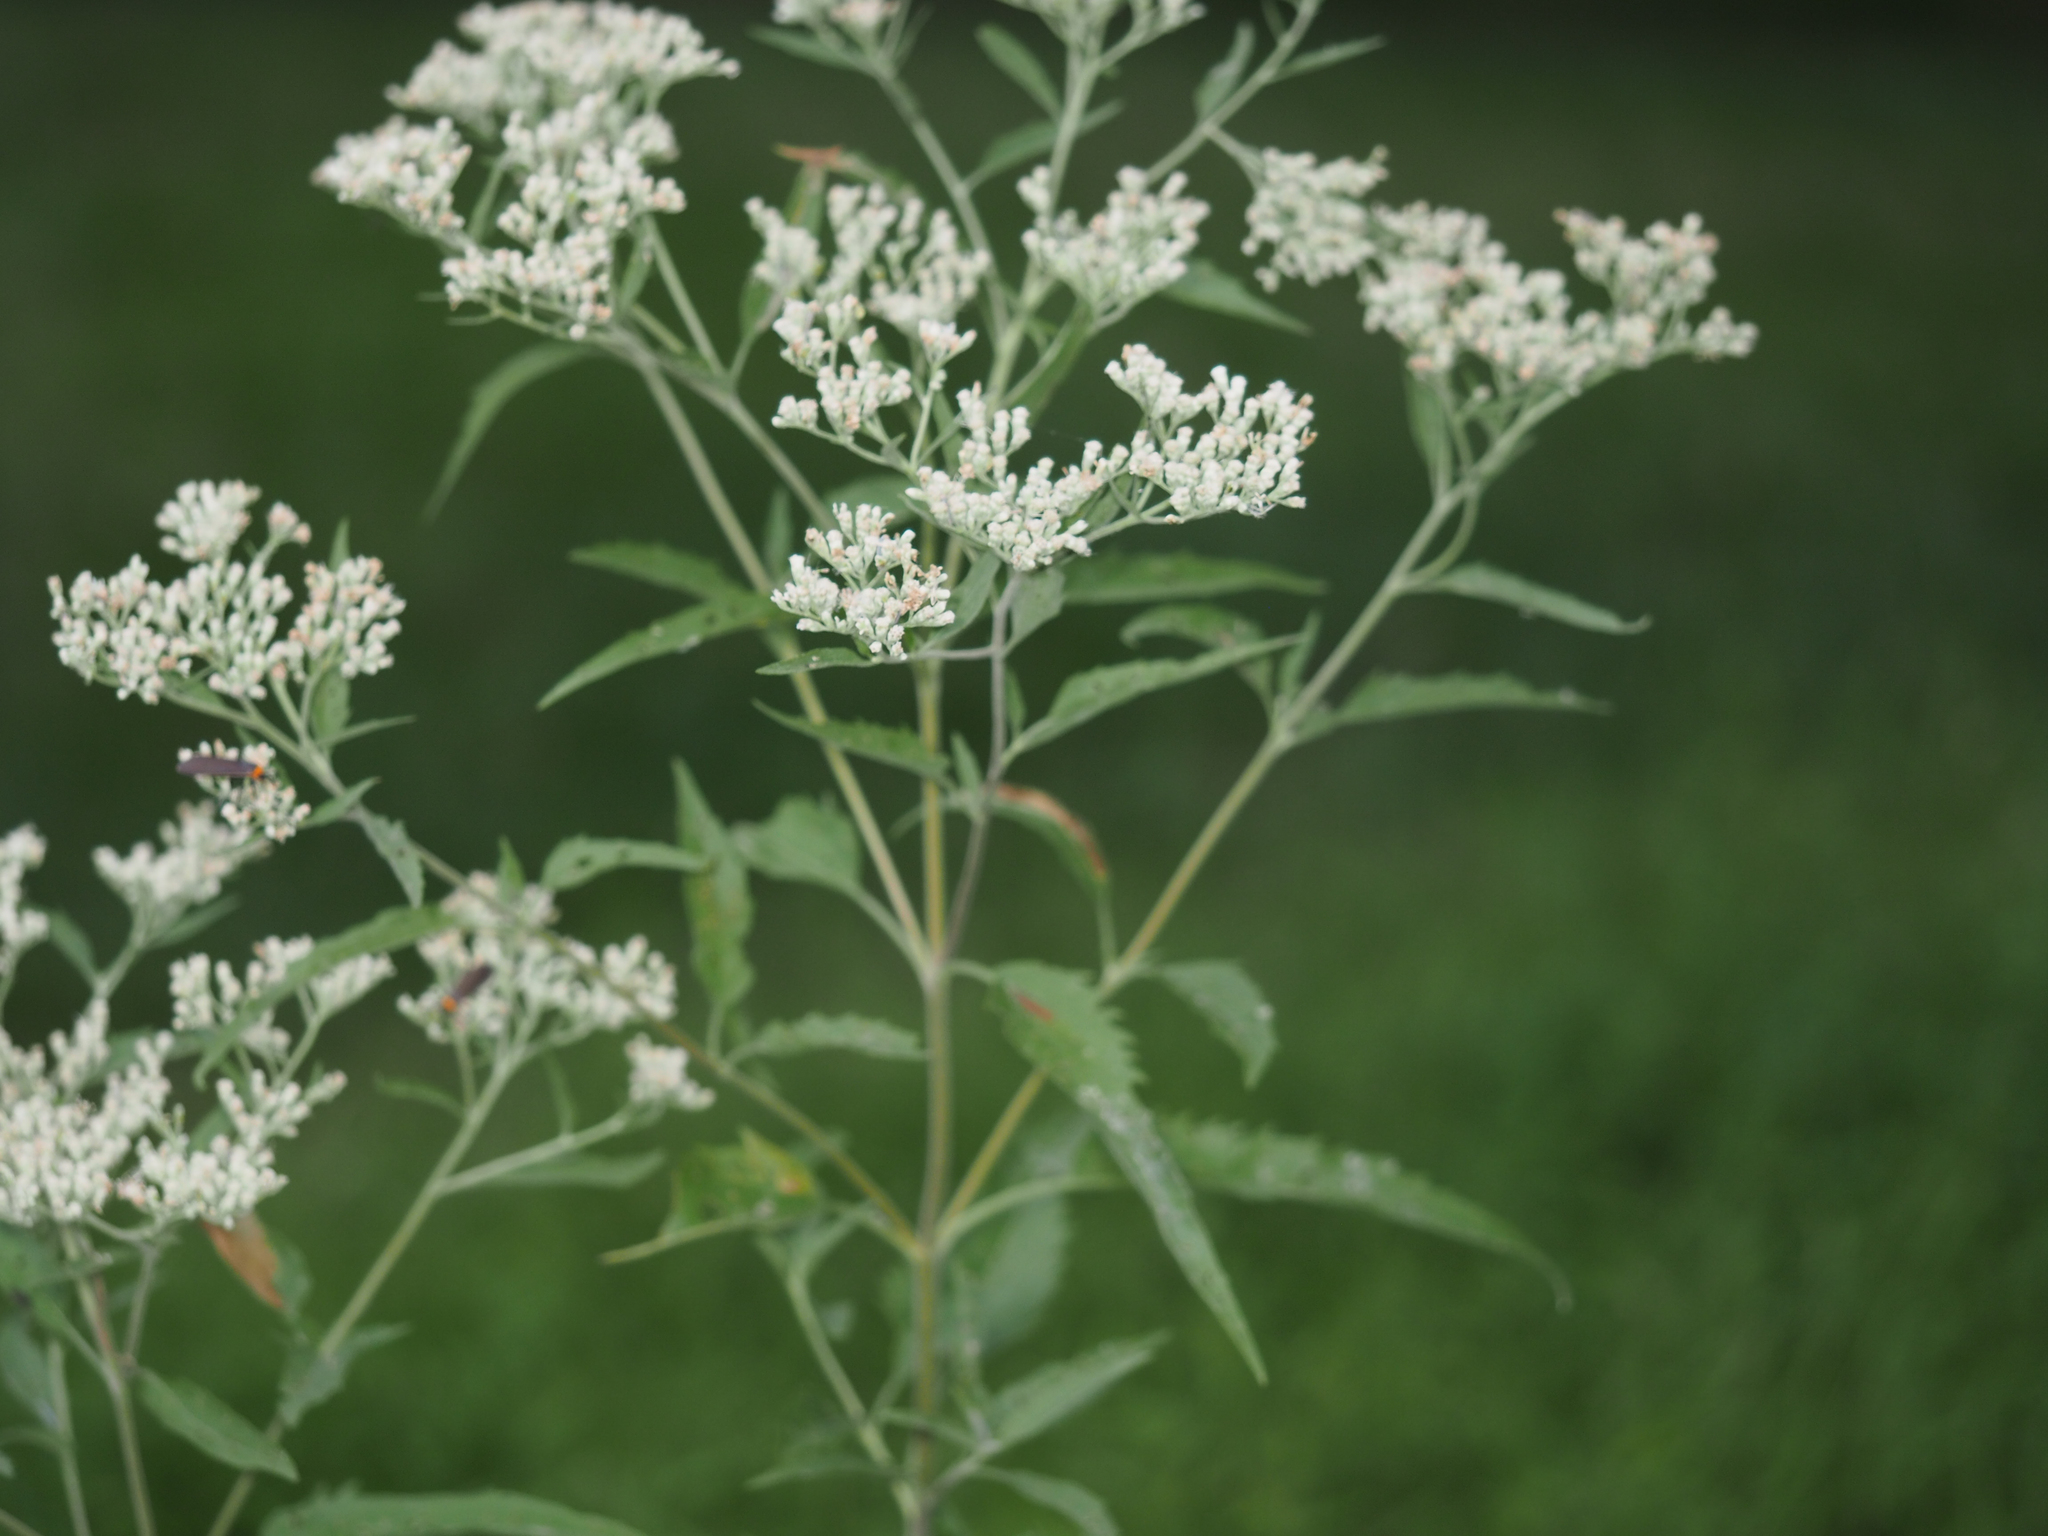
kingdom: Plantae
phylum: Tracheophyta
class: Magnoliopsida
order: Asterales
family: Asteraceae
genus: Eupatorium
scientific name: Eupatorium serotinum
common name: Late boneset
